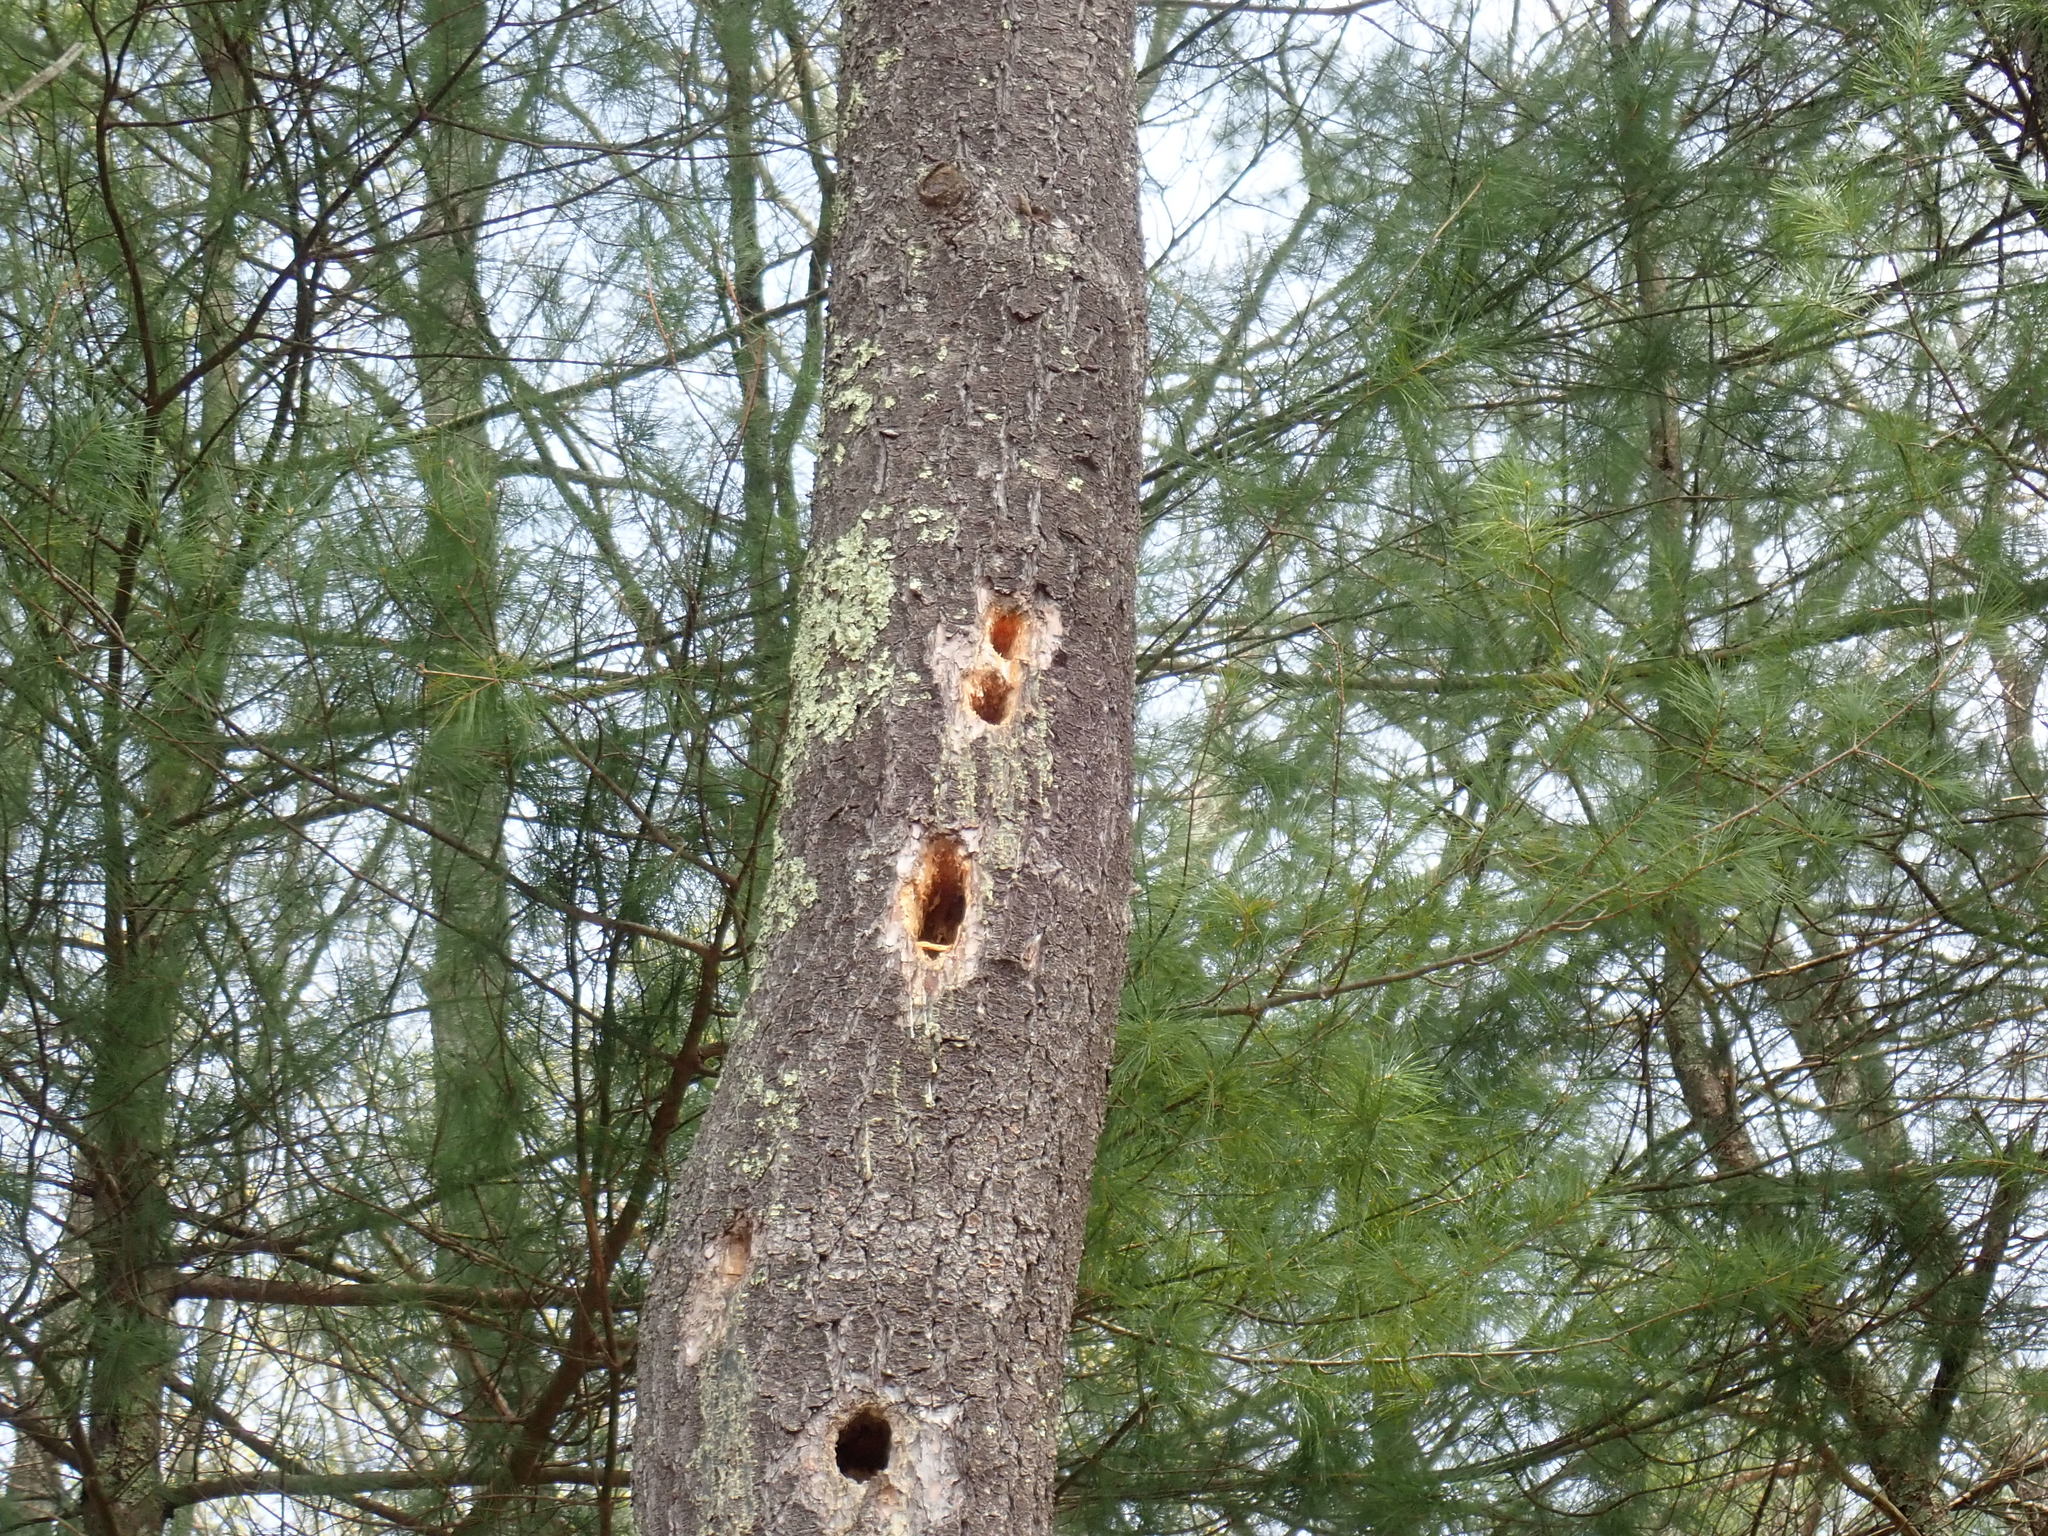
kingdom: Animalia
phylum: Chordata
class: Aves
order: Piciformes
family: Picidae
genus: Dryocopus
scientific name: Dryocopus pileatus
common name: Pileated woodpecker
